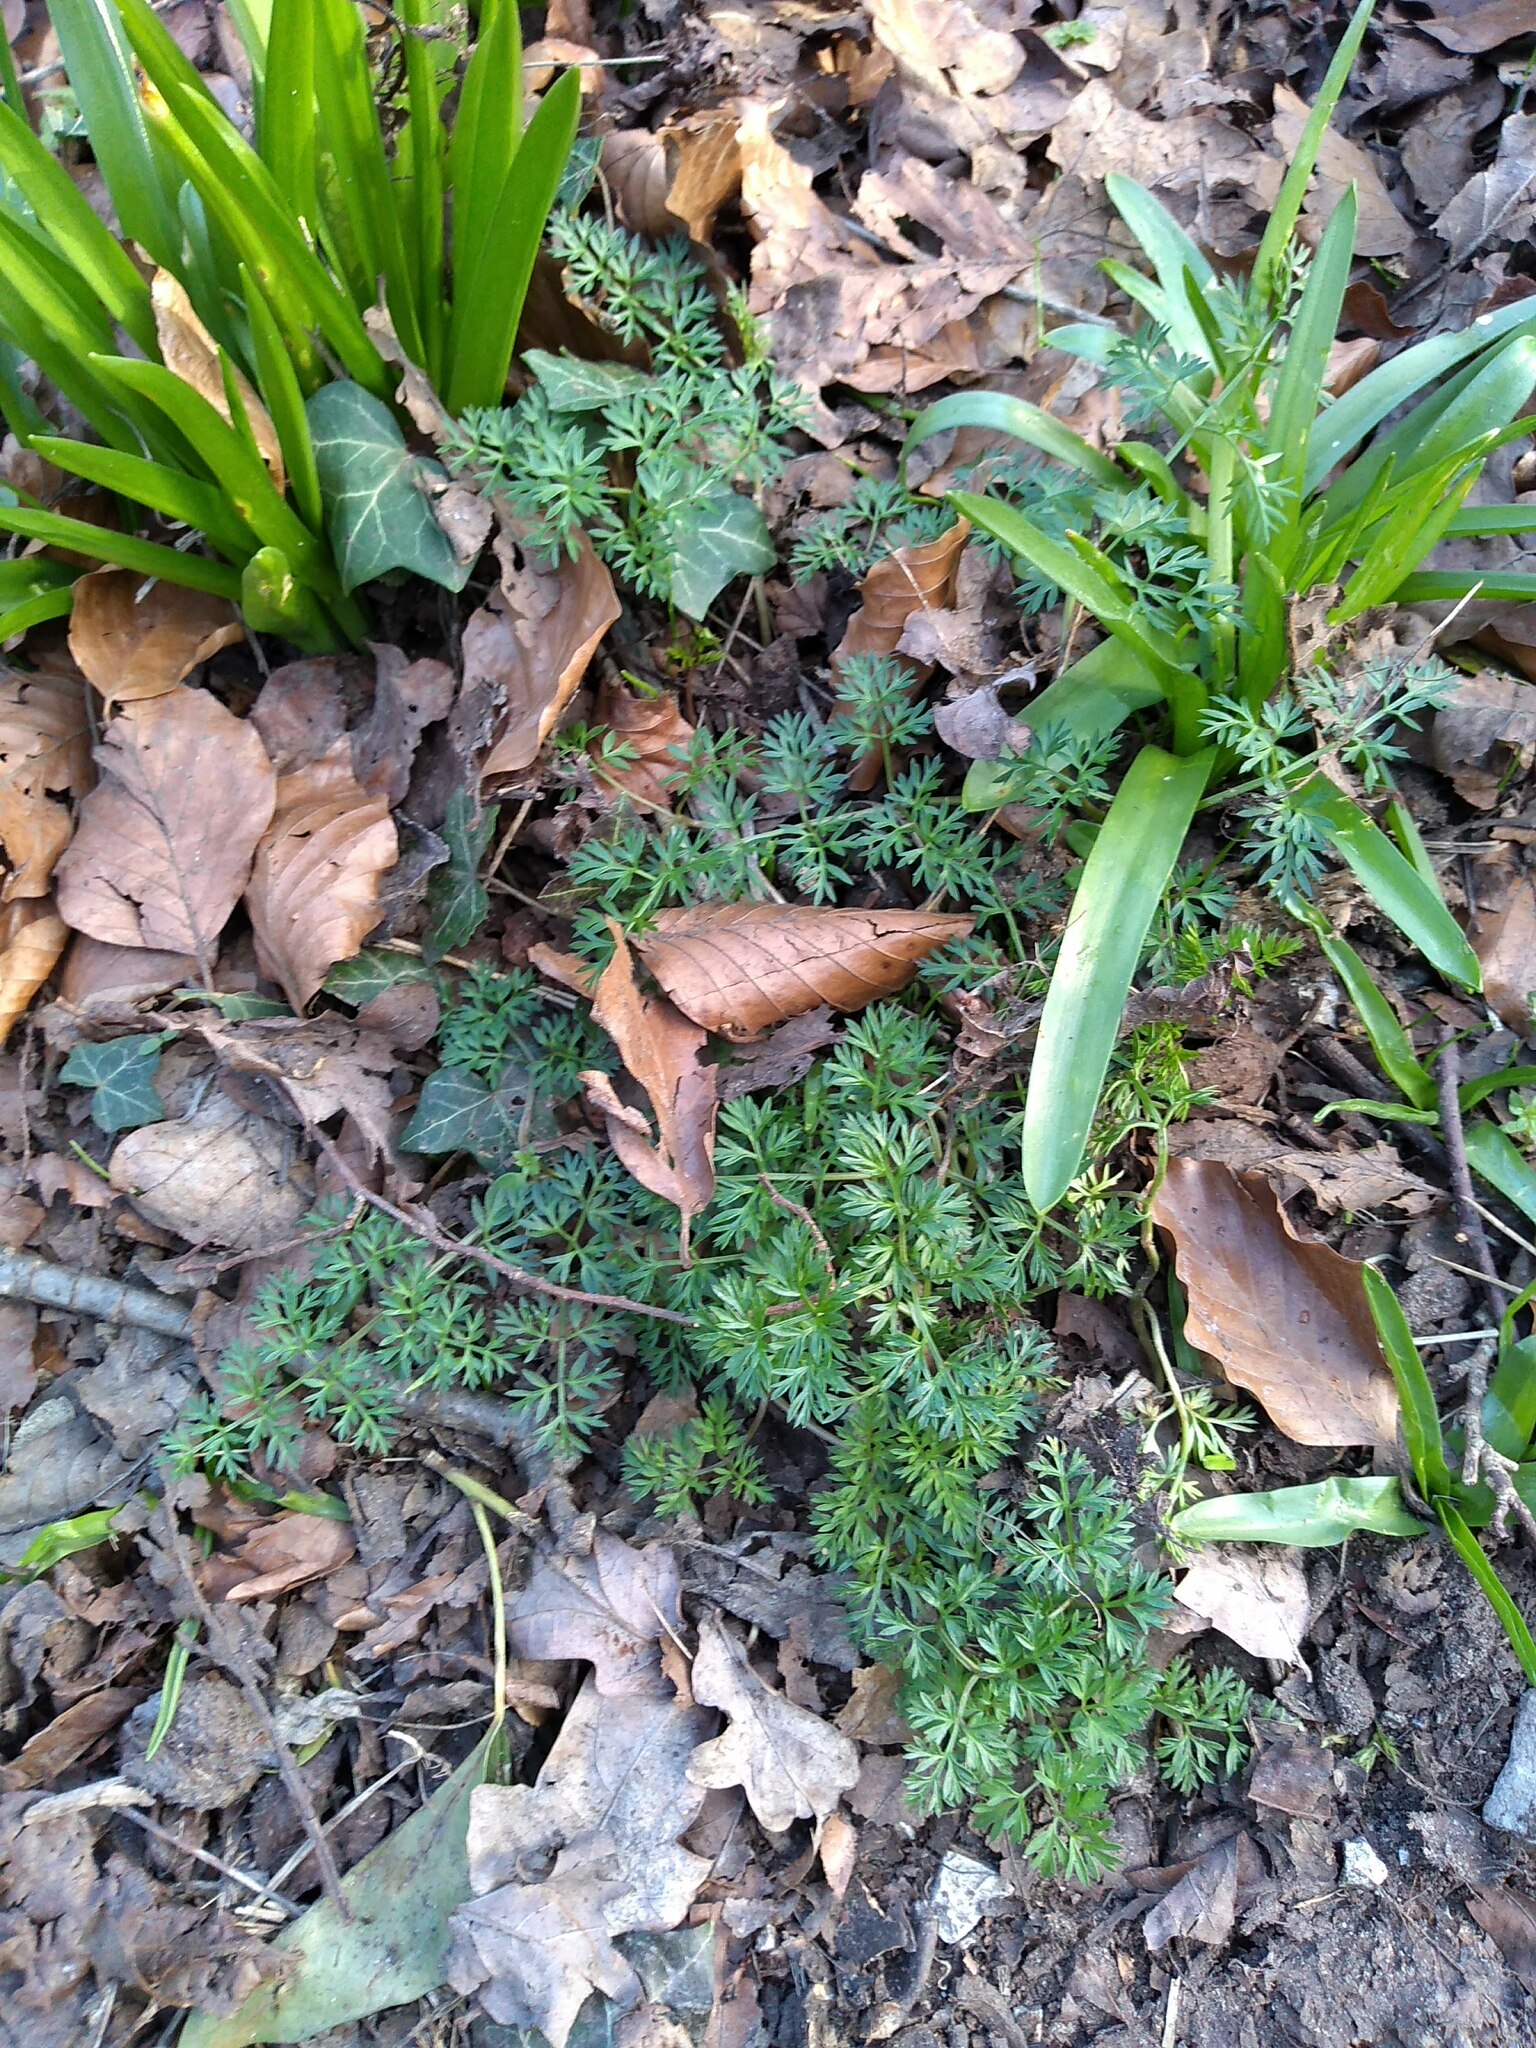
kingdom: Plantae
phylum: Tracheophyta
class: Magnoliopsida
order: Apiales
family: Apiaceae
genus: Conopodium
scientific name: Conopodium majus
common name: Pignut
